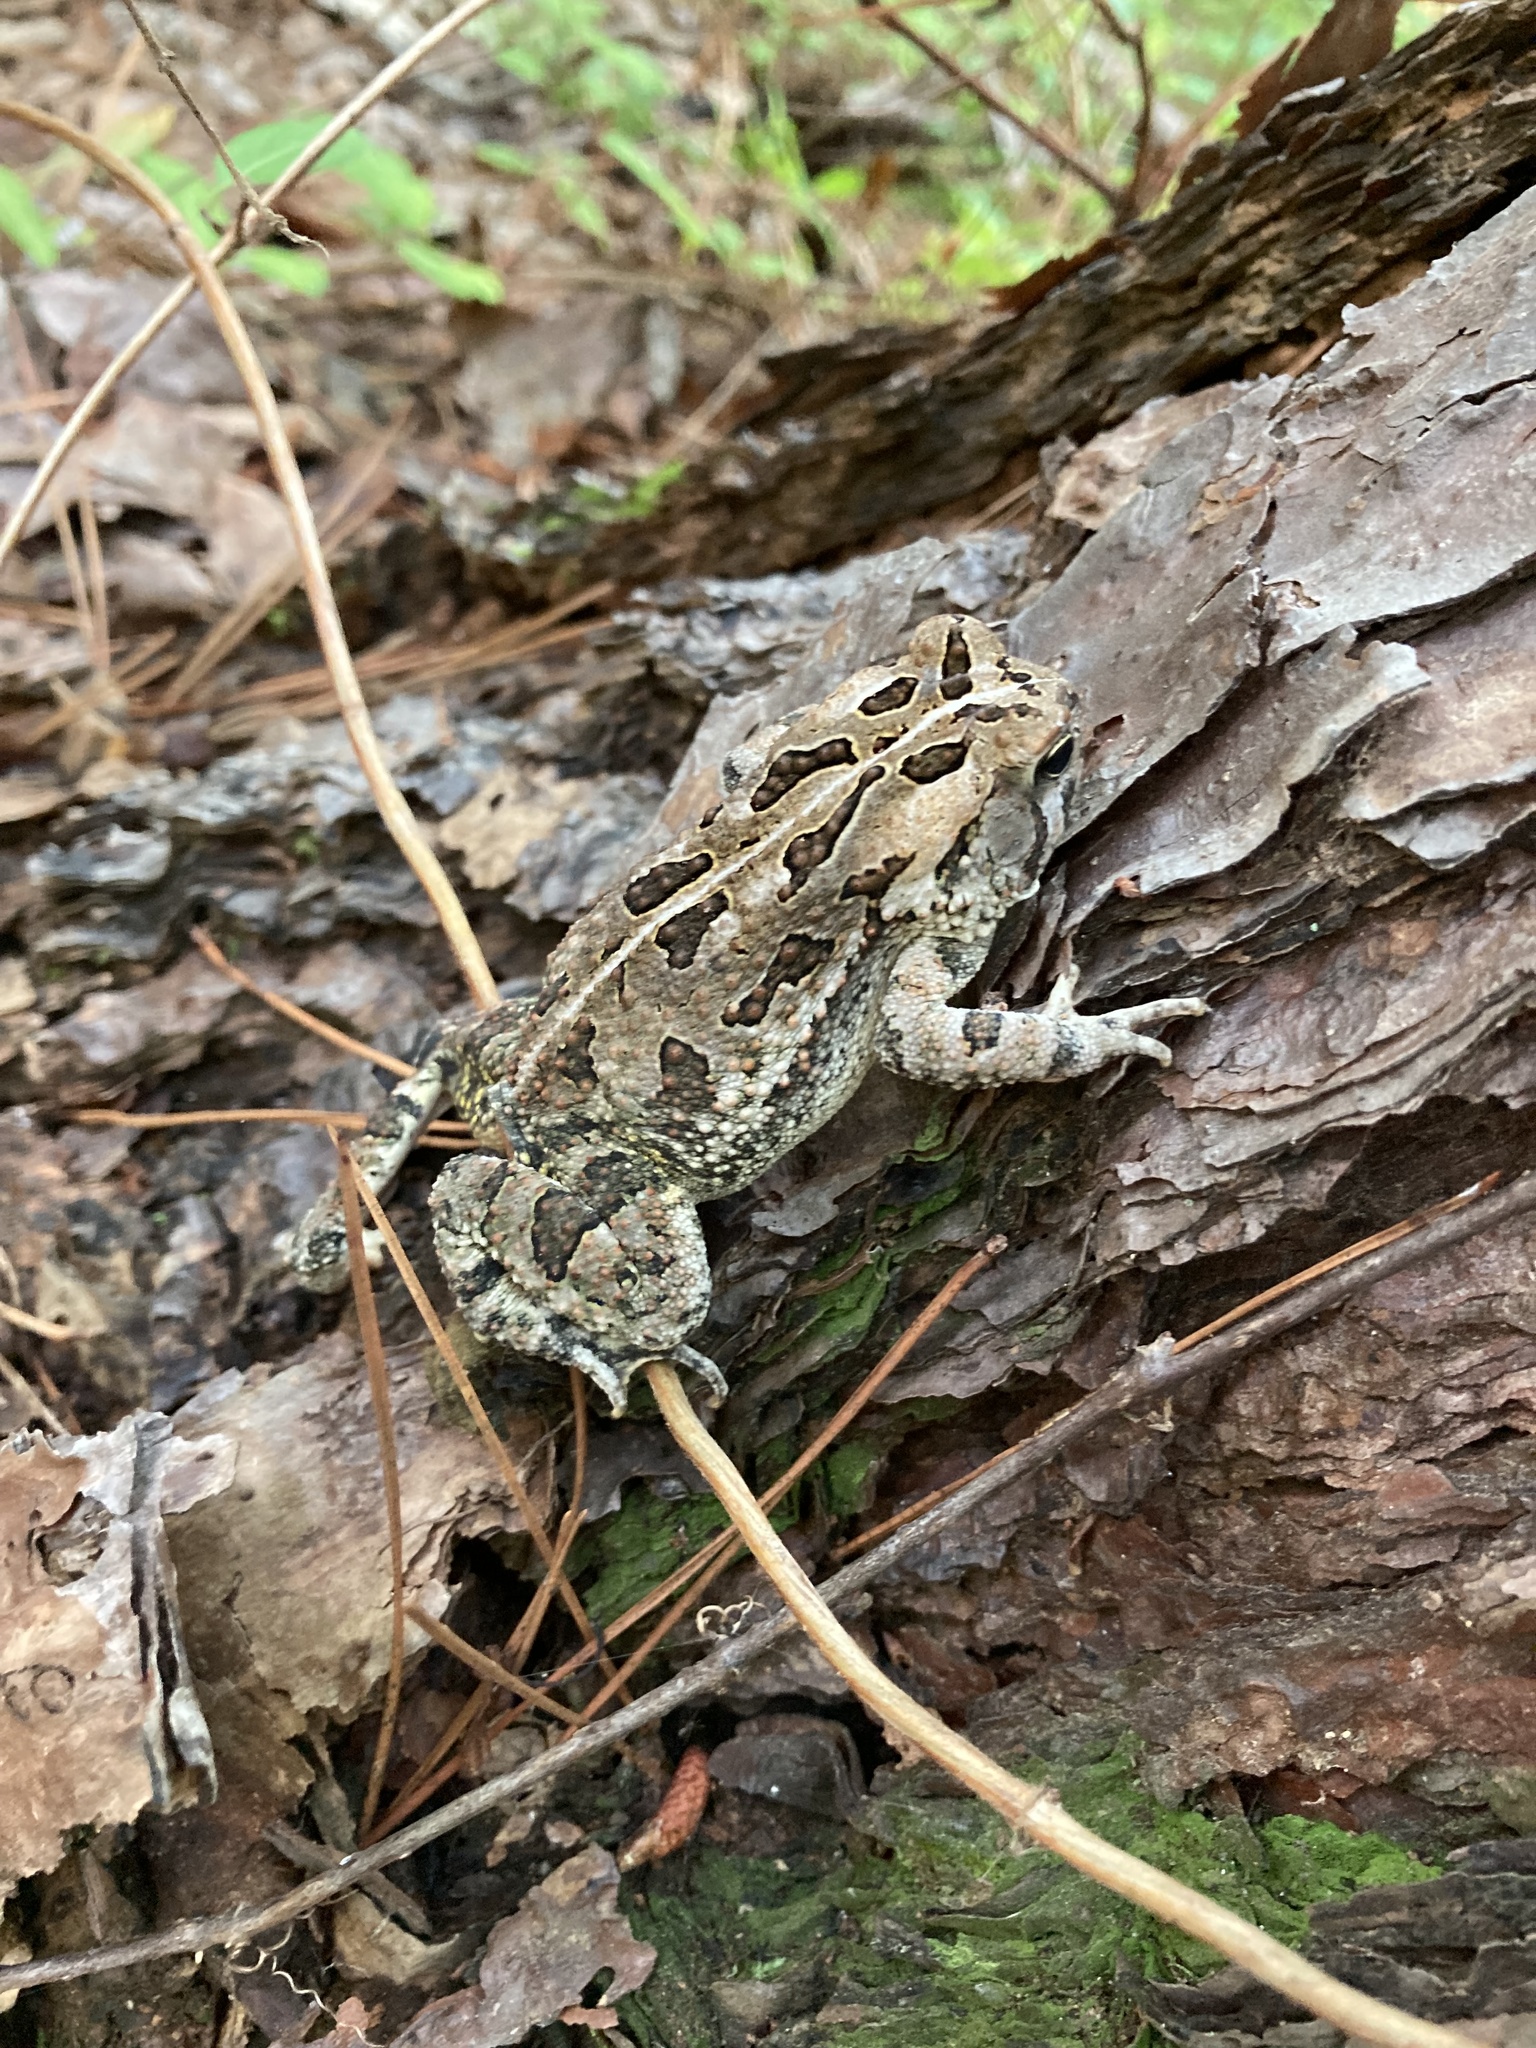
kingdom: Animalia
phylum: Chordata
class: Amphibia
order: Anura
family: Bufonidae
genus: Anaxyrus
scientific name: Anaxyrus fowleri
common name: Fowler's toad
